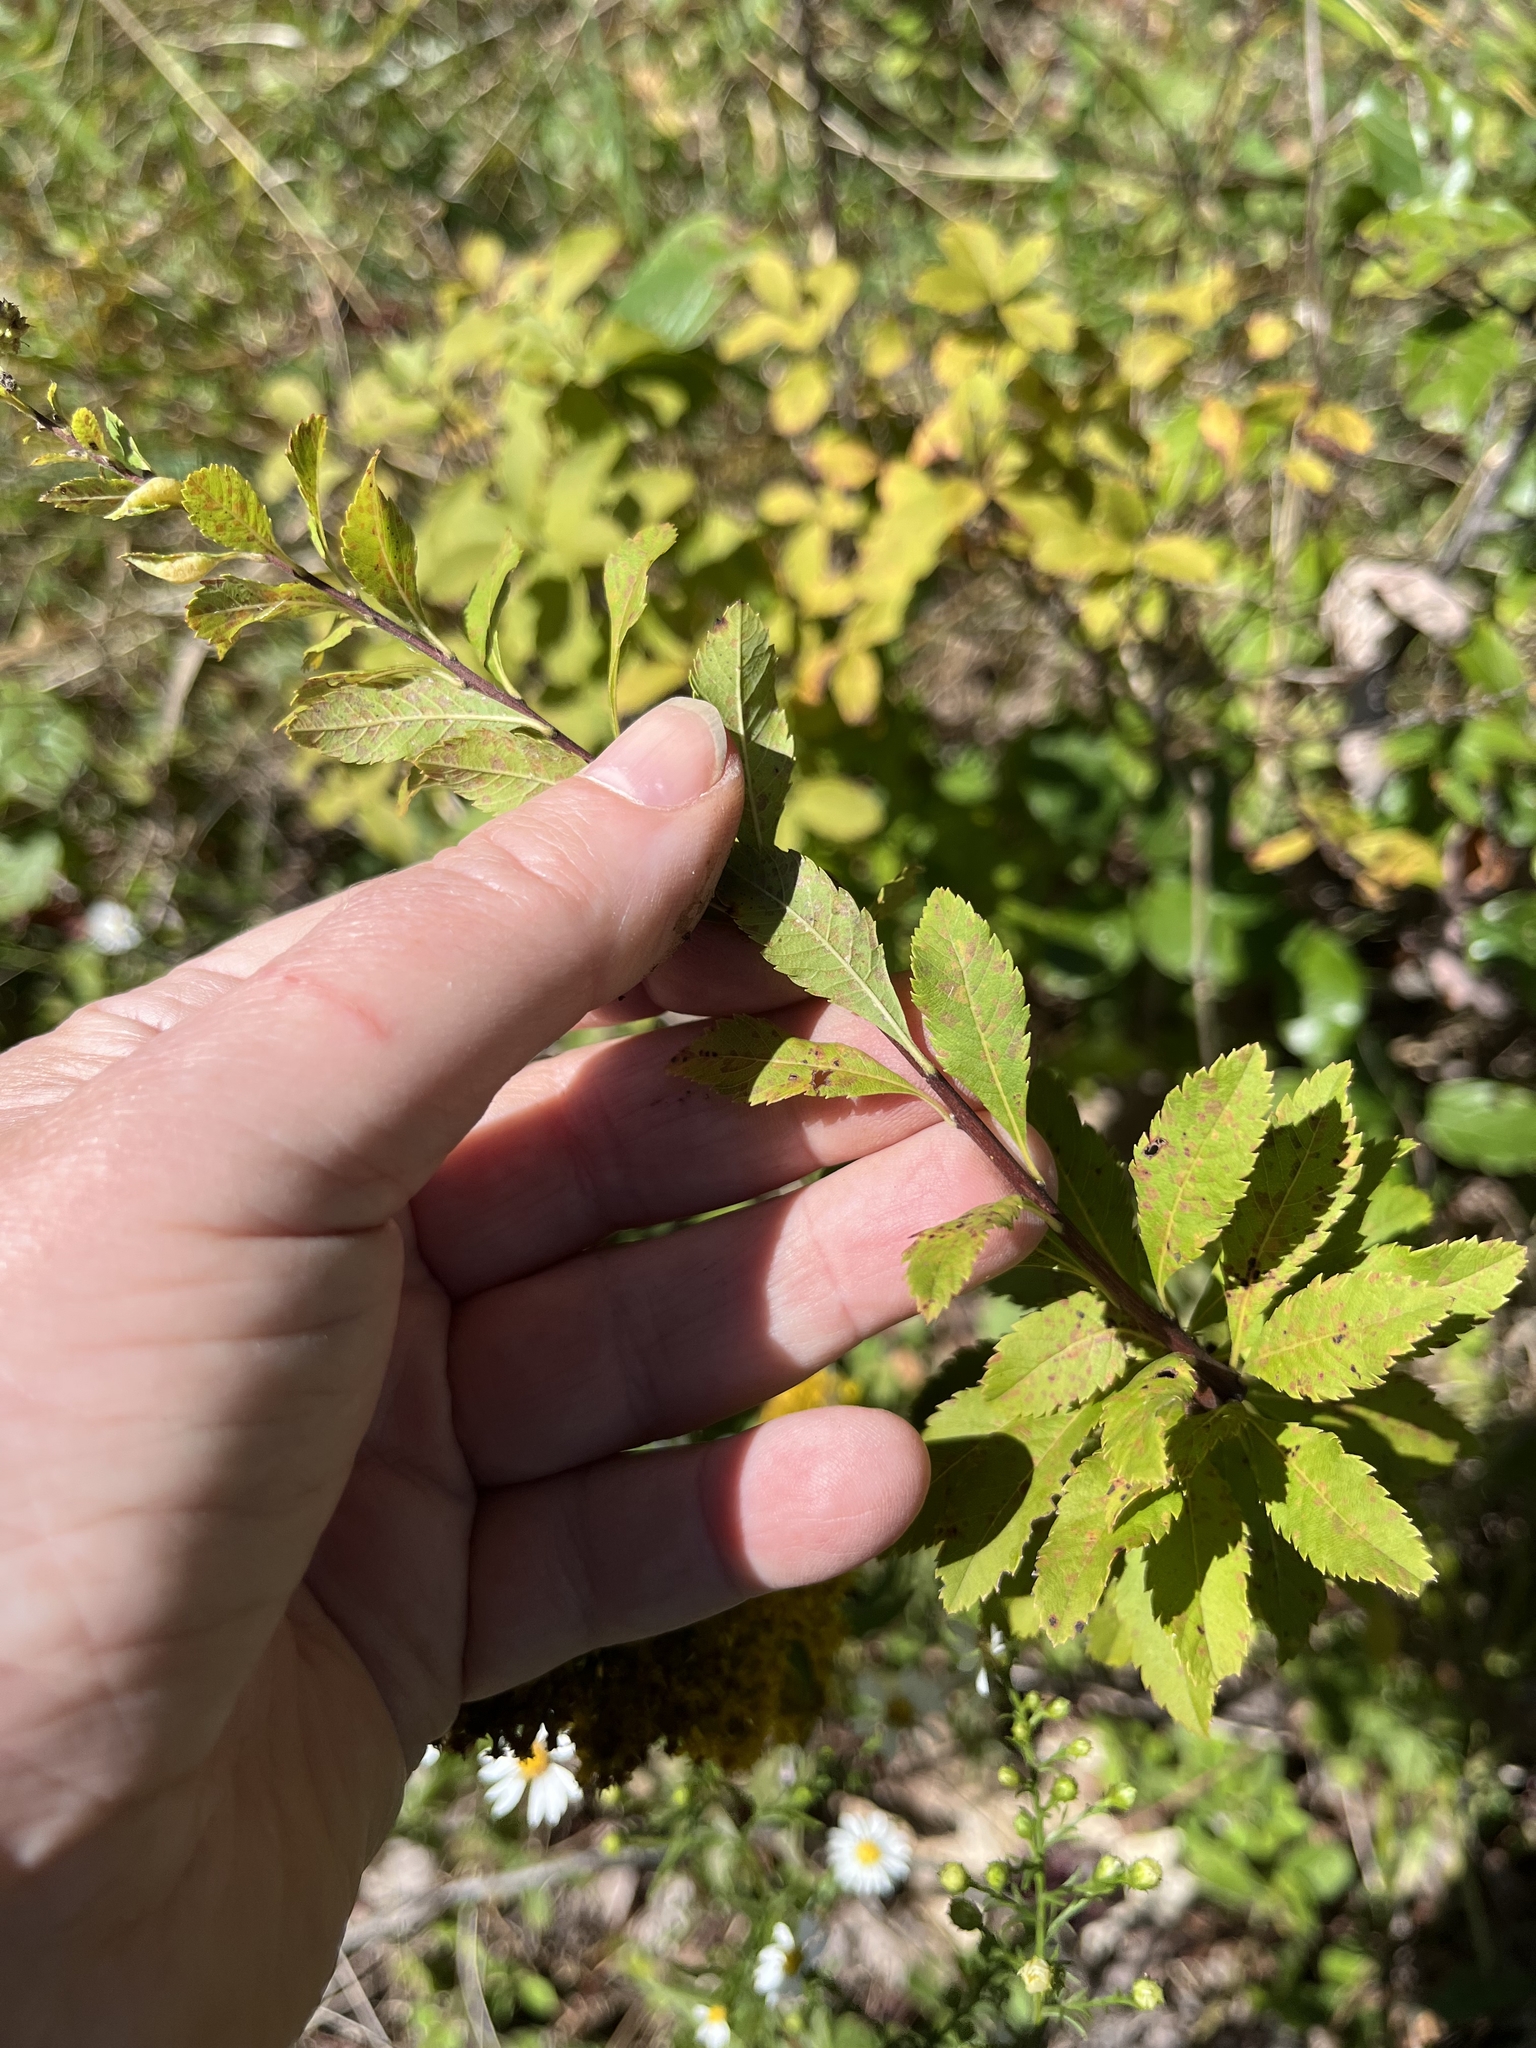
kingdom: Plantae
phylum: Tracheophyta
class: Magnoliopsida
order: Rosales
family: Rosaceae
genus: Spiraea
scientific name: Spiraea alba
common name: Pale bridewort
